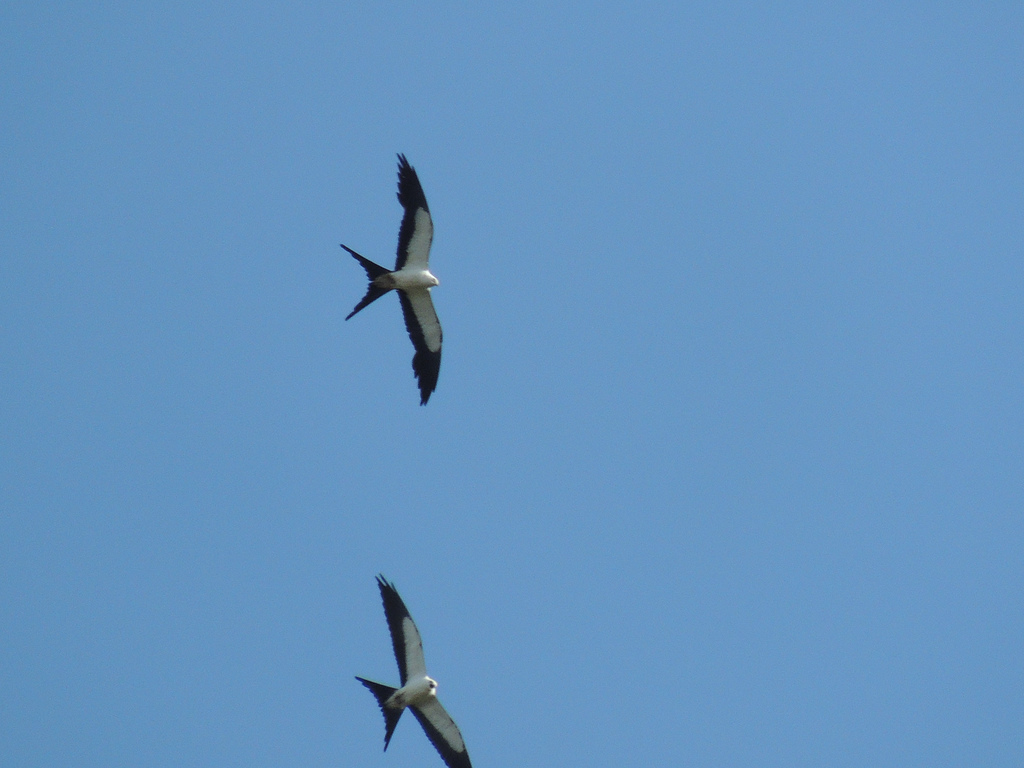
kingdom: Animalia
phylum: Chordata
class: Aves
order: Accipitriformes
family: Accipitridae
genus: Elanoides
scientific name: Elanoides forficatus
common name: Swallow-tailed kite
